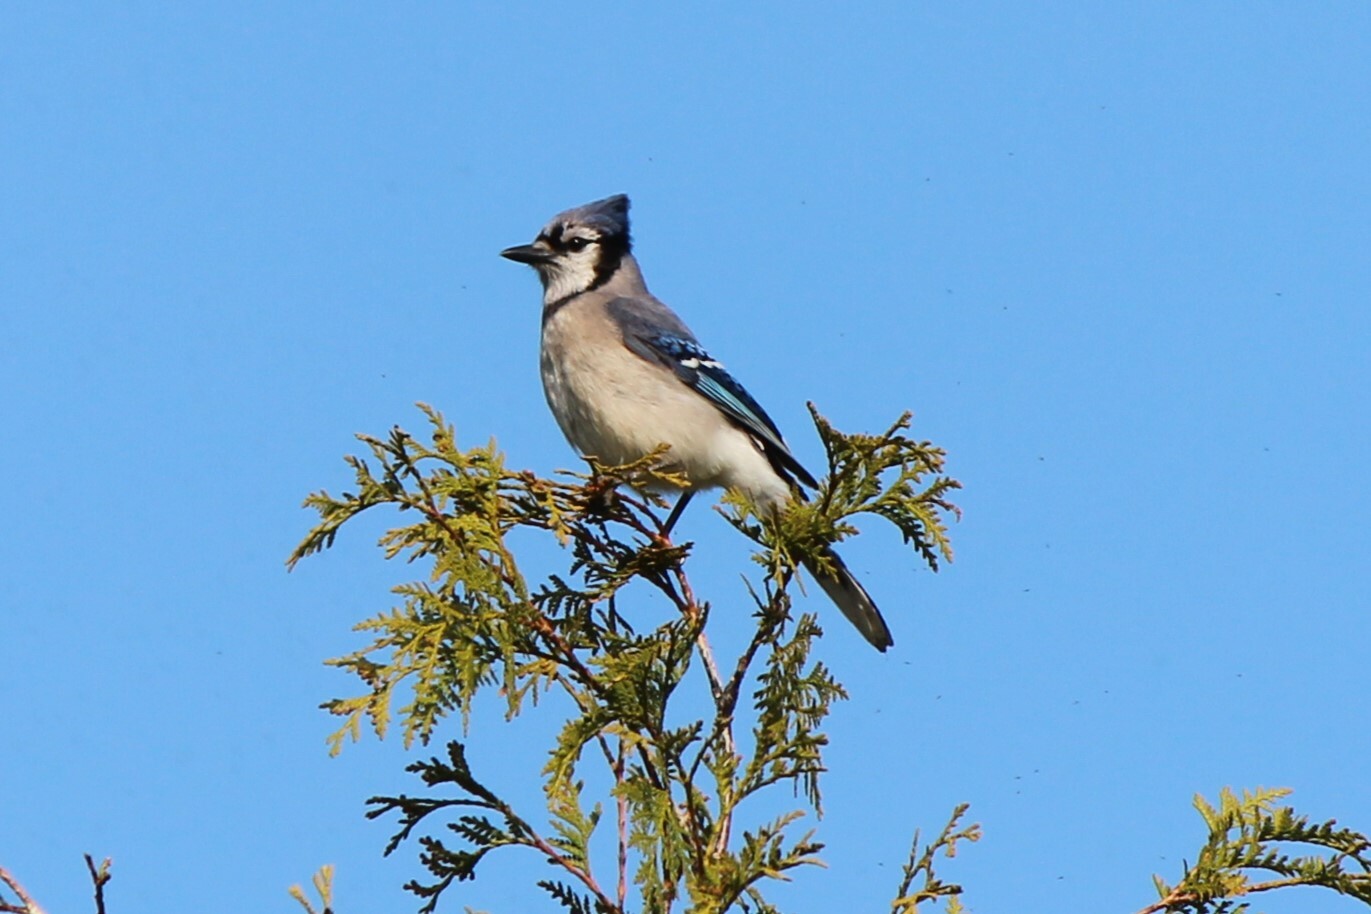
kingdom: Animalia
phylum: Chordata
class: Aves
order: Passeriformes
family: Corvidae
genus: Cyanocitta
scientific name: Cyanocitta cristata
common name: Blue jay
